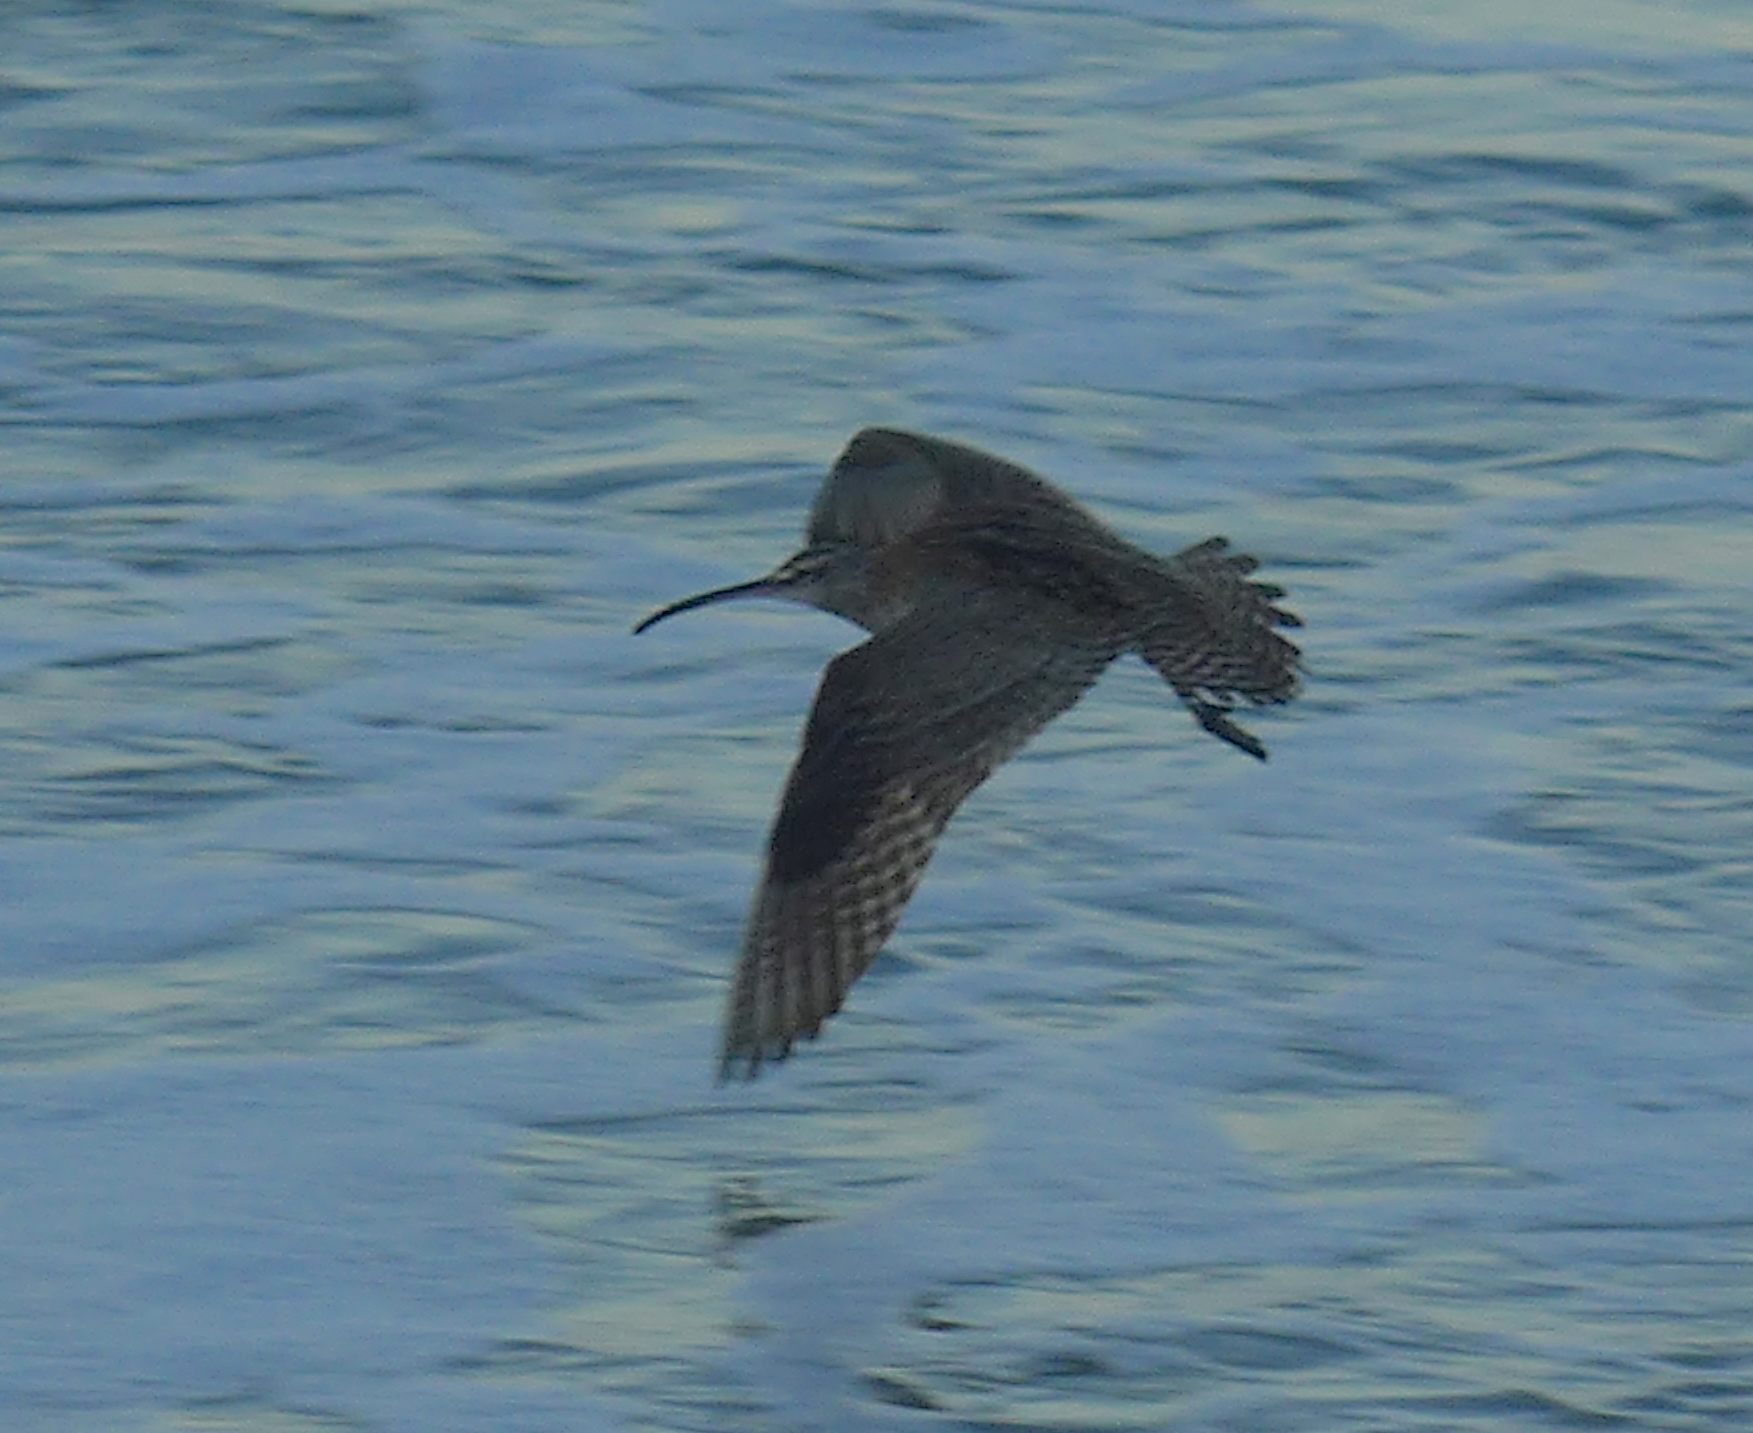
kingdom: Animalia
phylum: Chordata
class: Aves
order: Charadriiformes
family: Scolopacidae
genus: Numenius
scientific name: Numenius phaeopus
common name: Whimbrel
